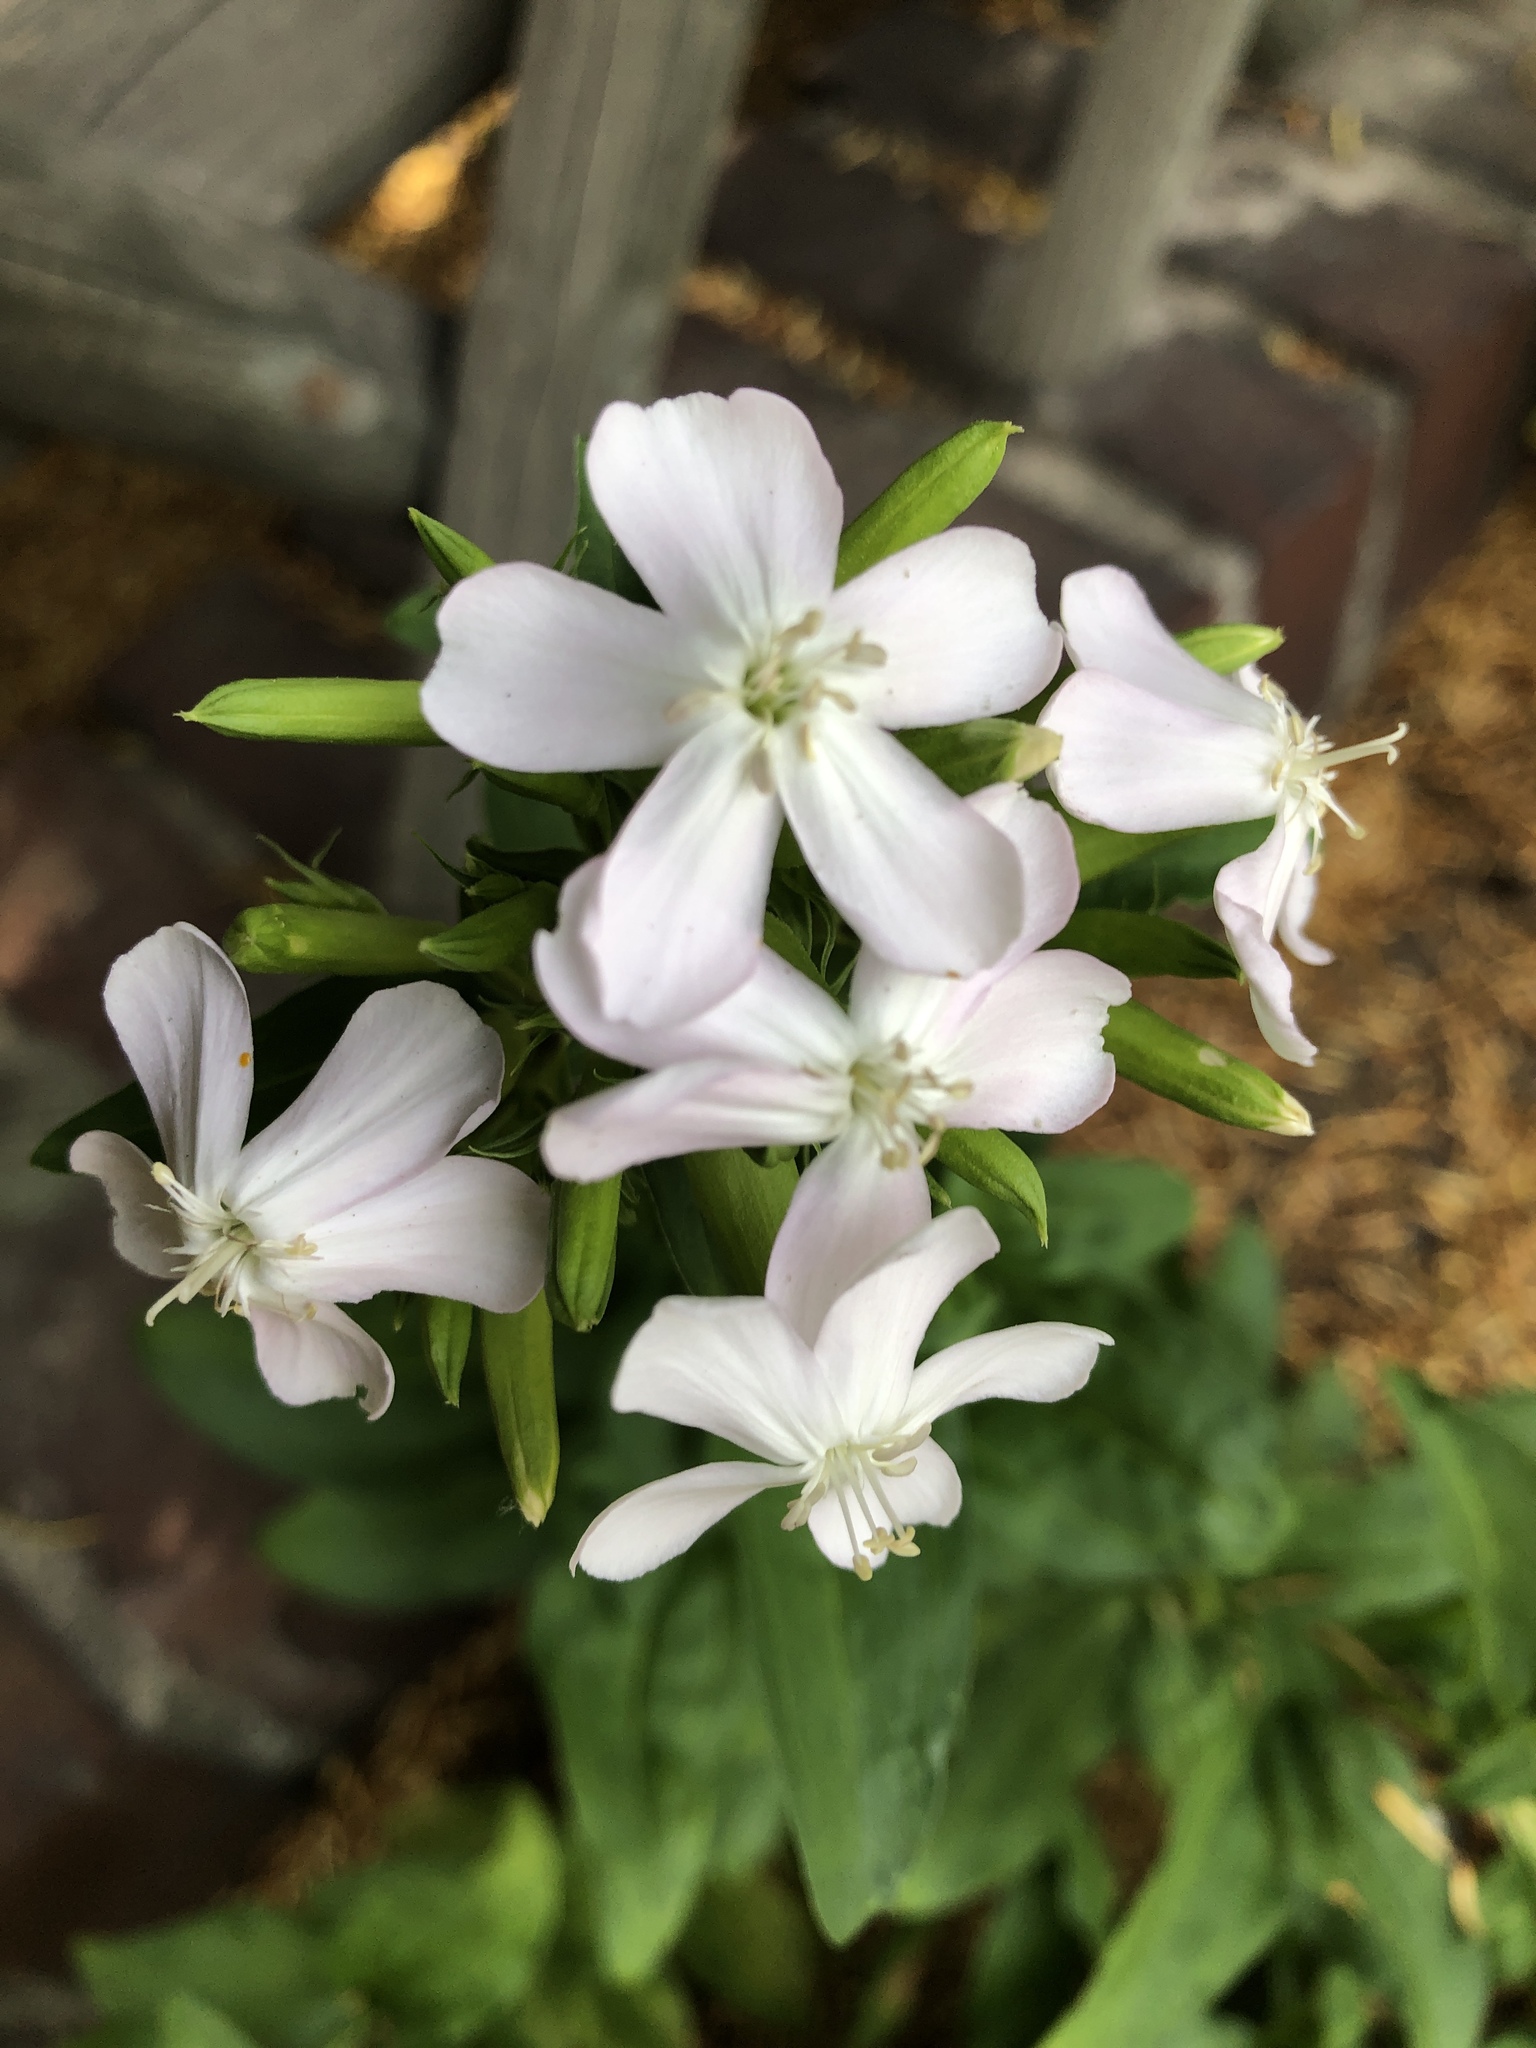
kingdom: Plantae
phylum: Tracheophyta
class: Magnoliopsida
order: Caryophyllales
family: Caryophyllaceae
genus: Saponaria
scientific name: Saponaria officinalis
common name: Soapwort
